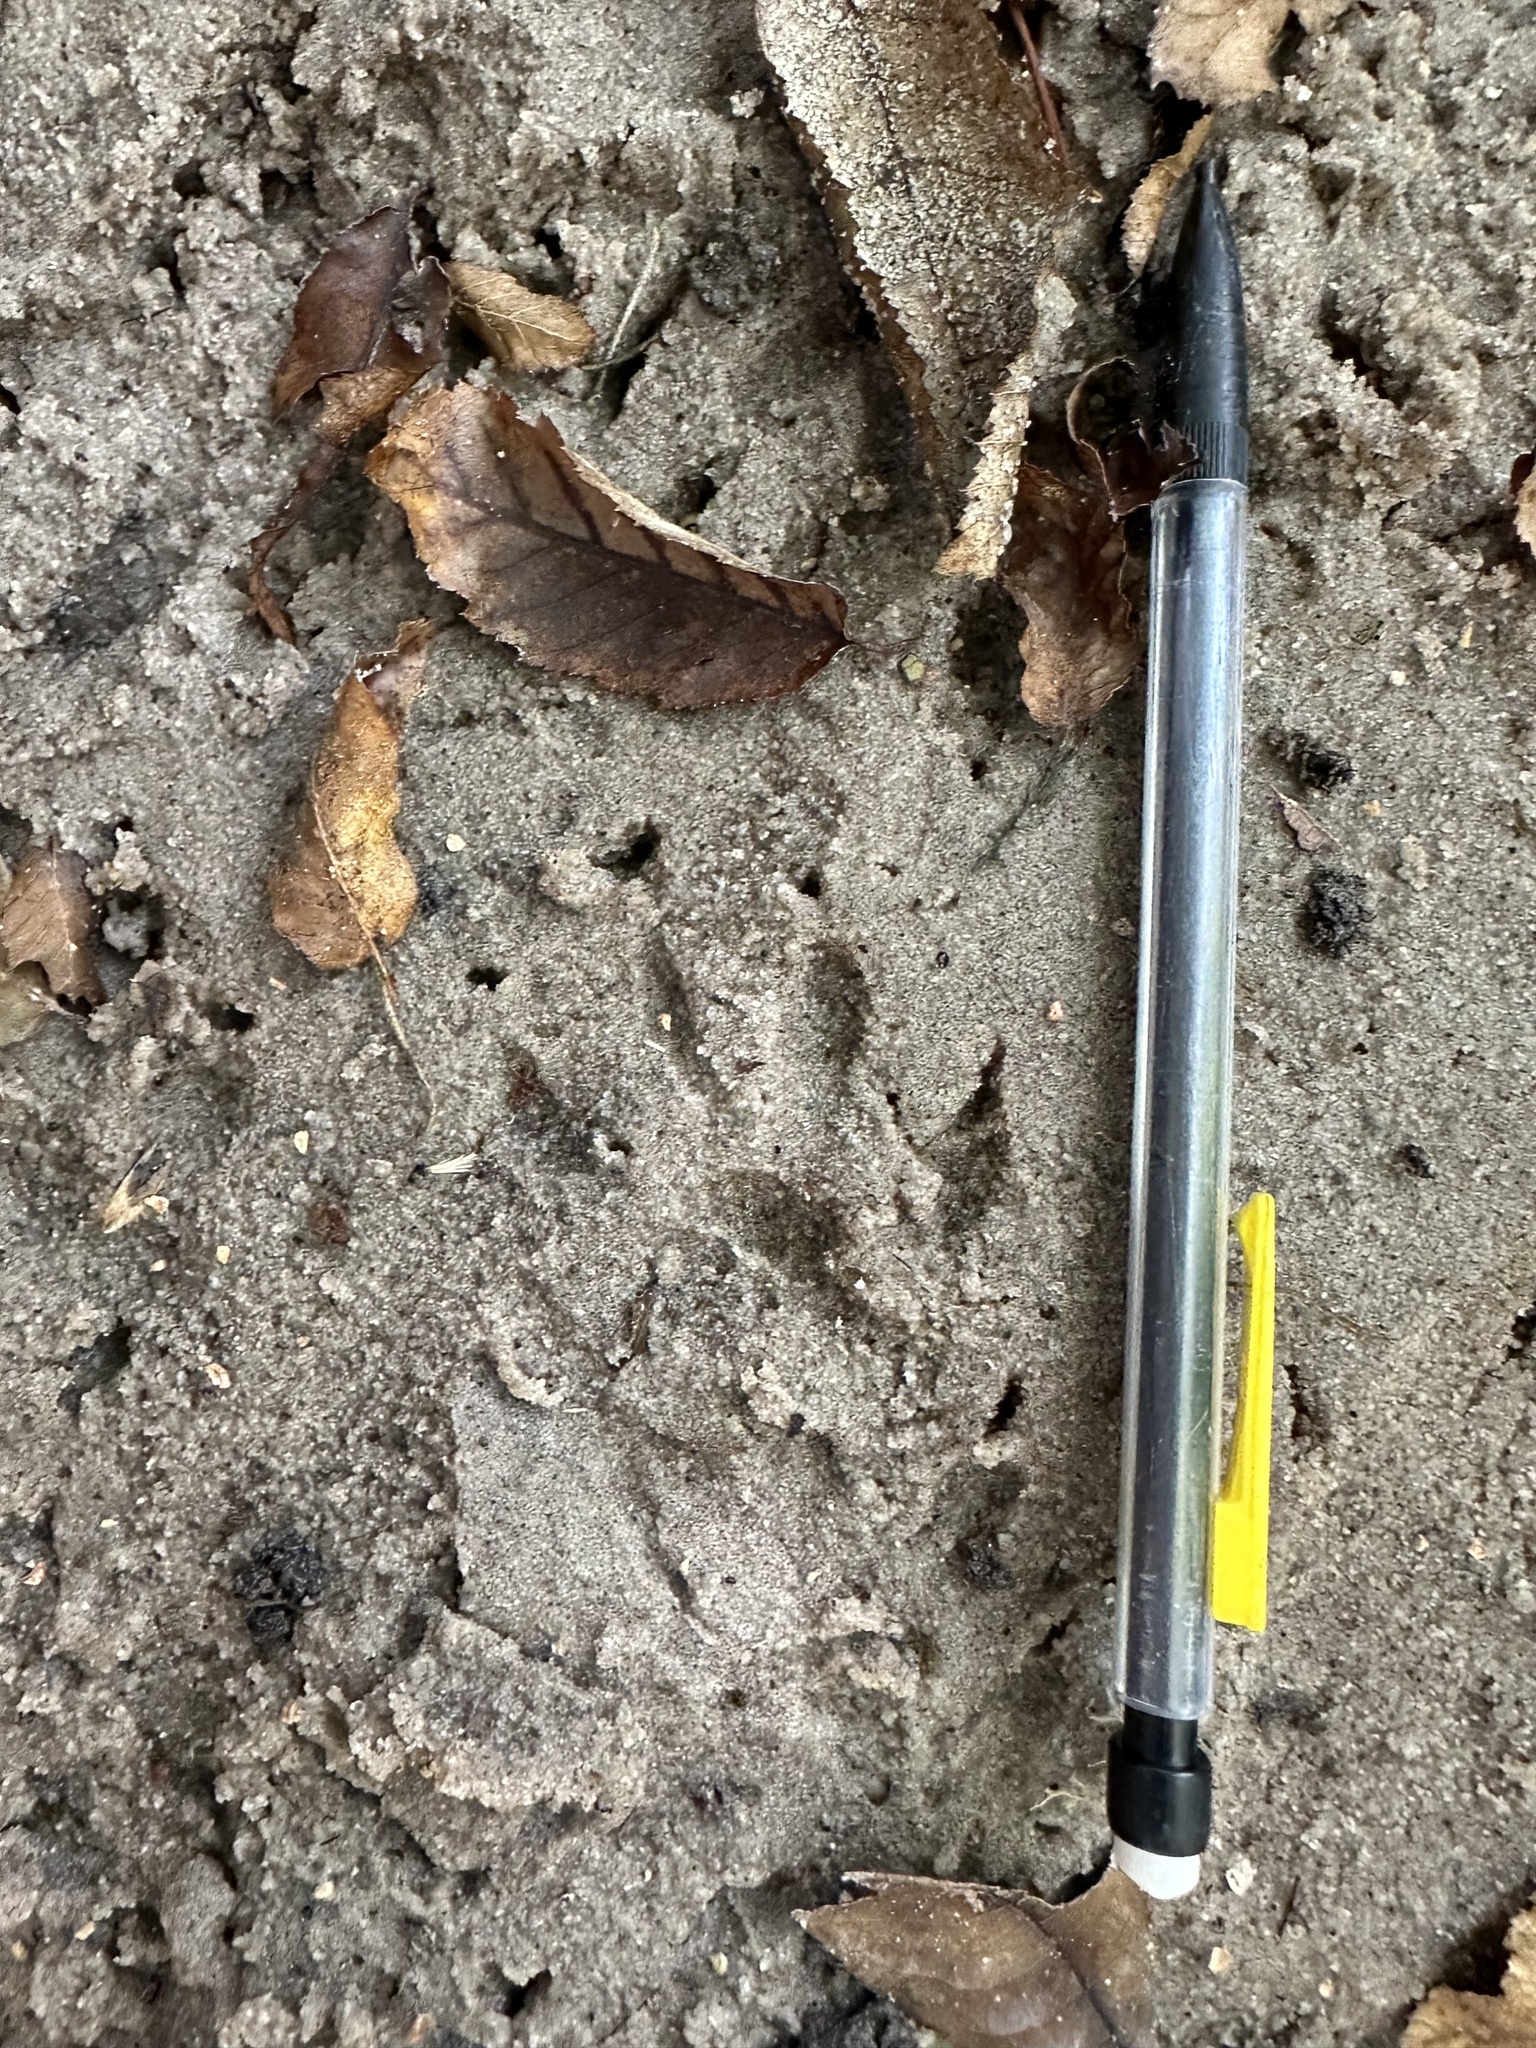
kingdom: Animalia
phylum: Chordata
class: Mammalia
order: Carnivora
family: Procyonidae
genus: Procyon
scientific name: Procyon lotor
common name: Raccoon
